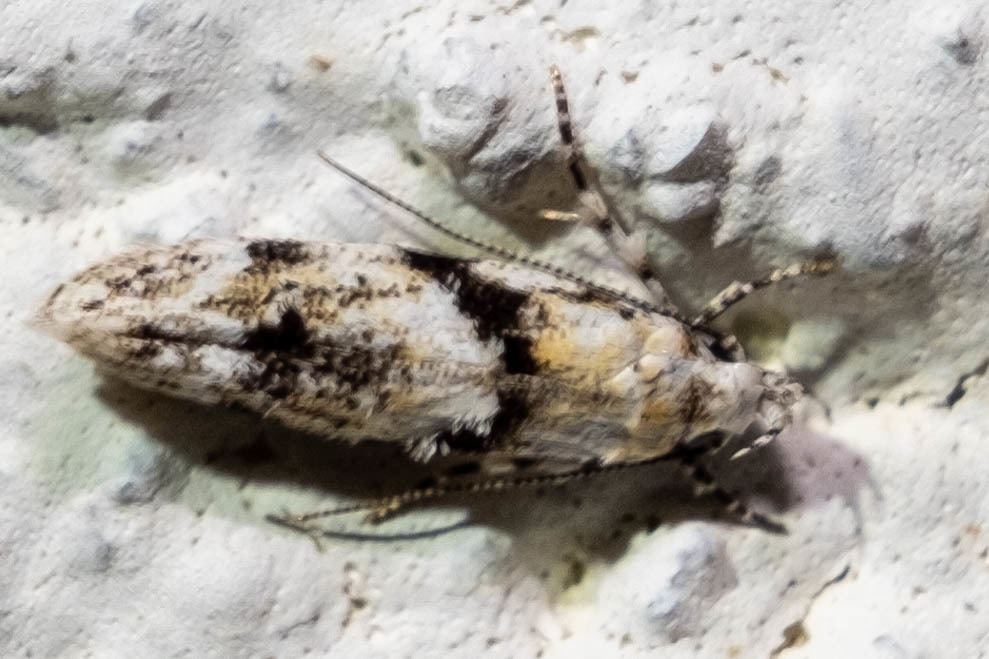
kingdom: Animalia
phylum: Arthropoda
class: Insecta
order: Lepidoptera
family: Gelechiidae
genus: Arogalea
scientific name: Arogalea cristifasciella
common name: White stripe-backed moth
